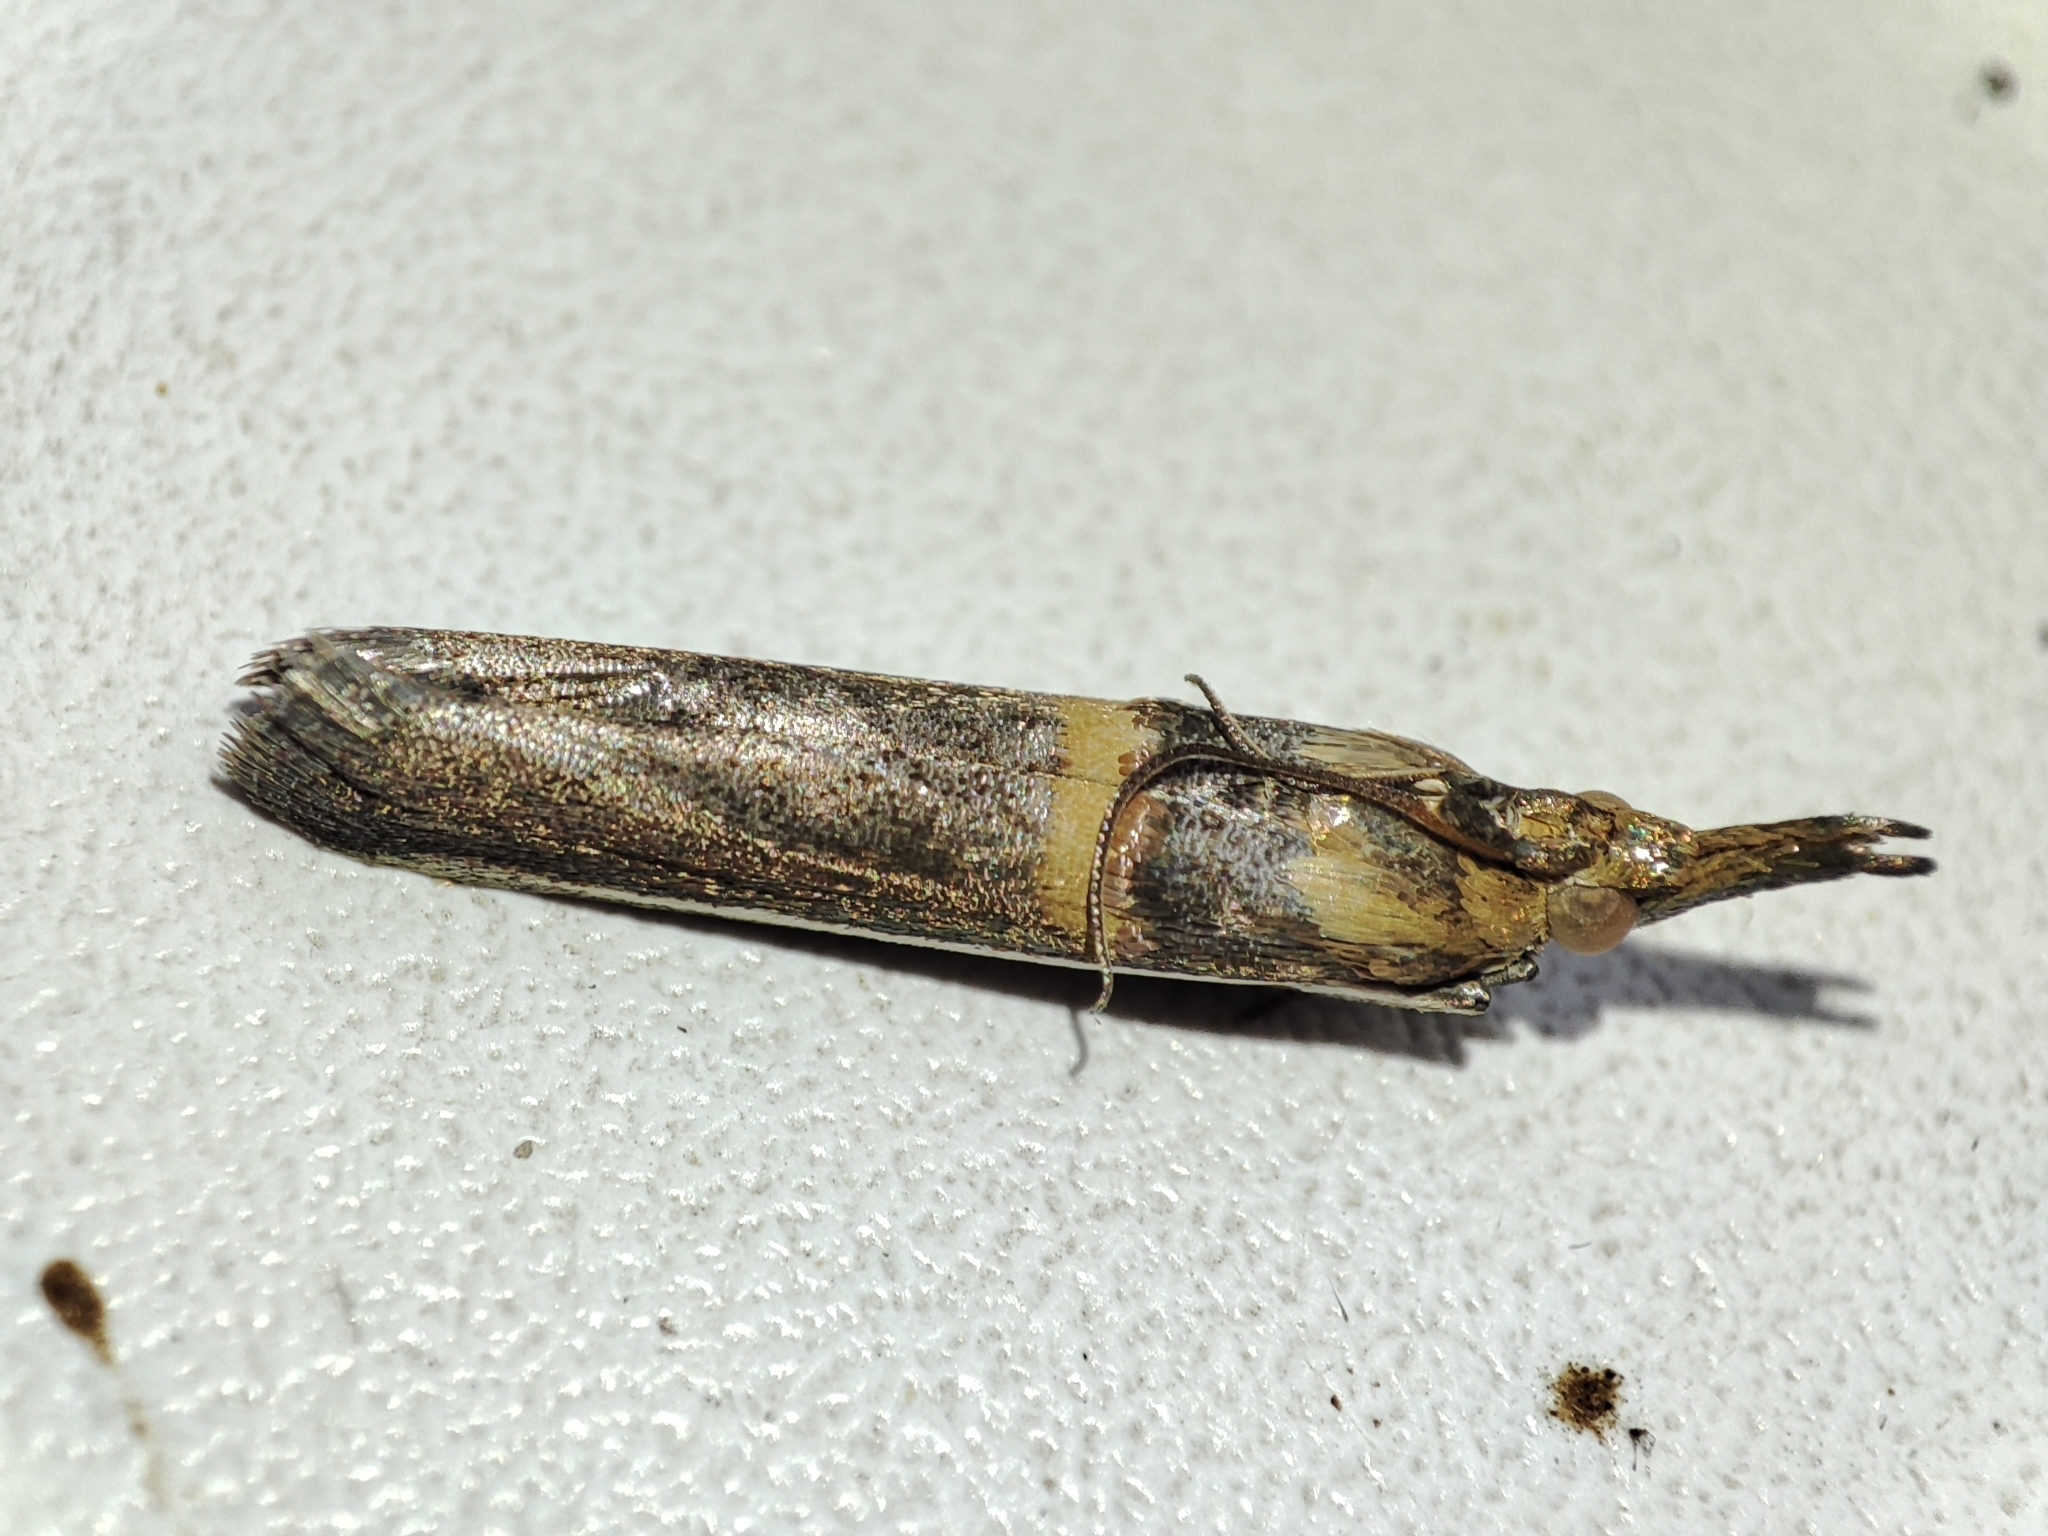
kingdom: Animalia
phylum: Arthropoda
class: Insecta
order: Lepidoptera
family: Pyralidae
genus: Etiella
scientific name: Etiella zinckenella
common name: Gold-banded etiella moth
